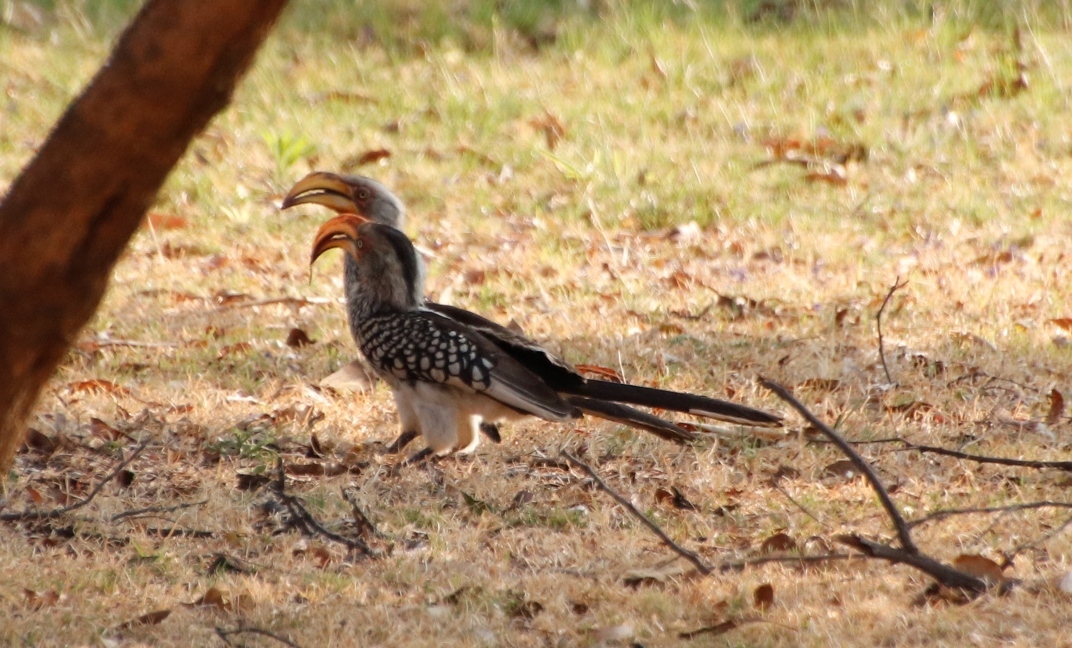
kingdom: Animalia
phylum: Chordata
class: Aves
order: Bucerotiformes
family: Bucerotidae
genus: Tockus
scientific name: Tockus leucomelas
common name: Southern yellow-billed hornbill
